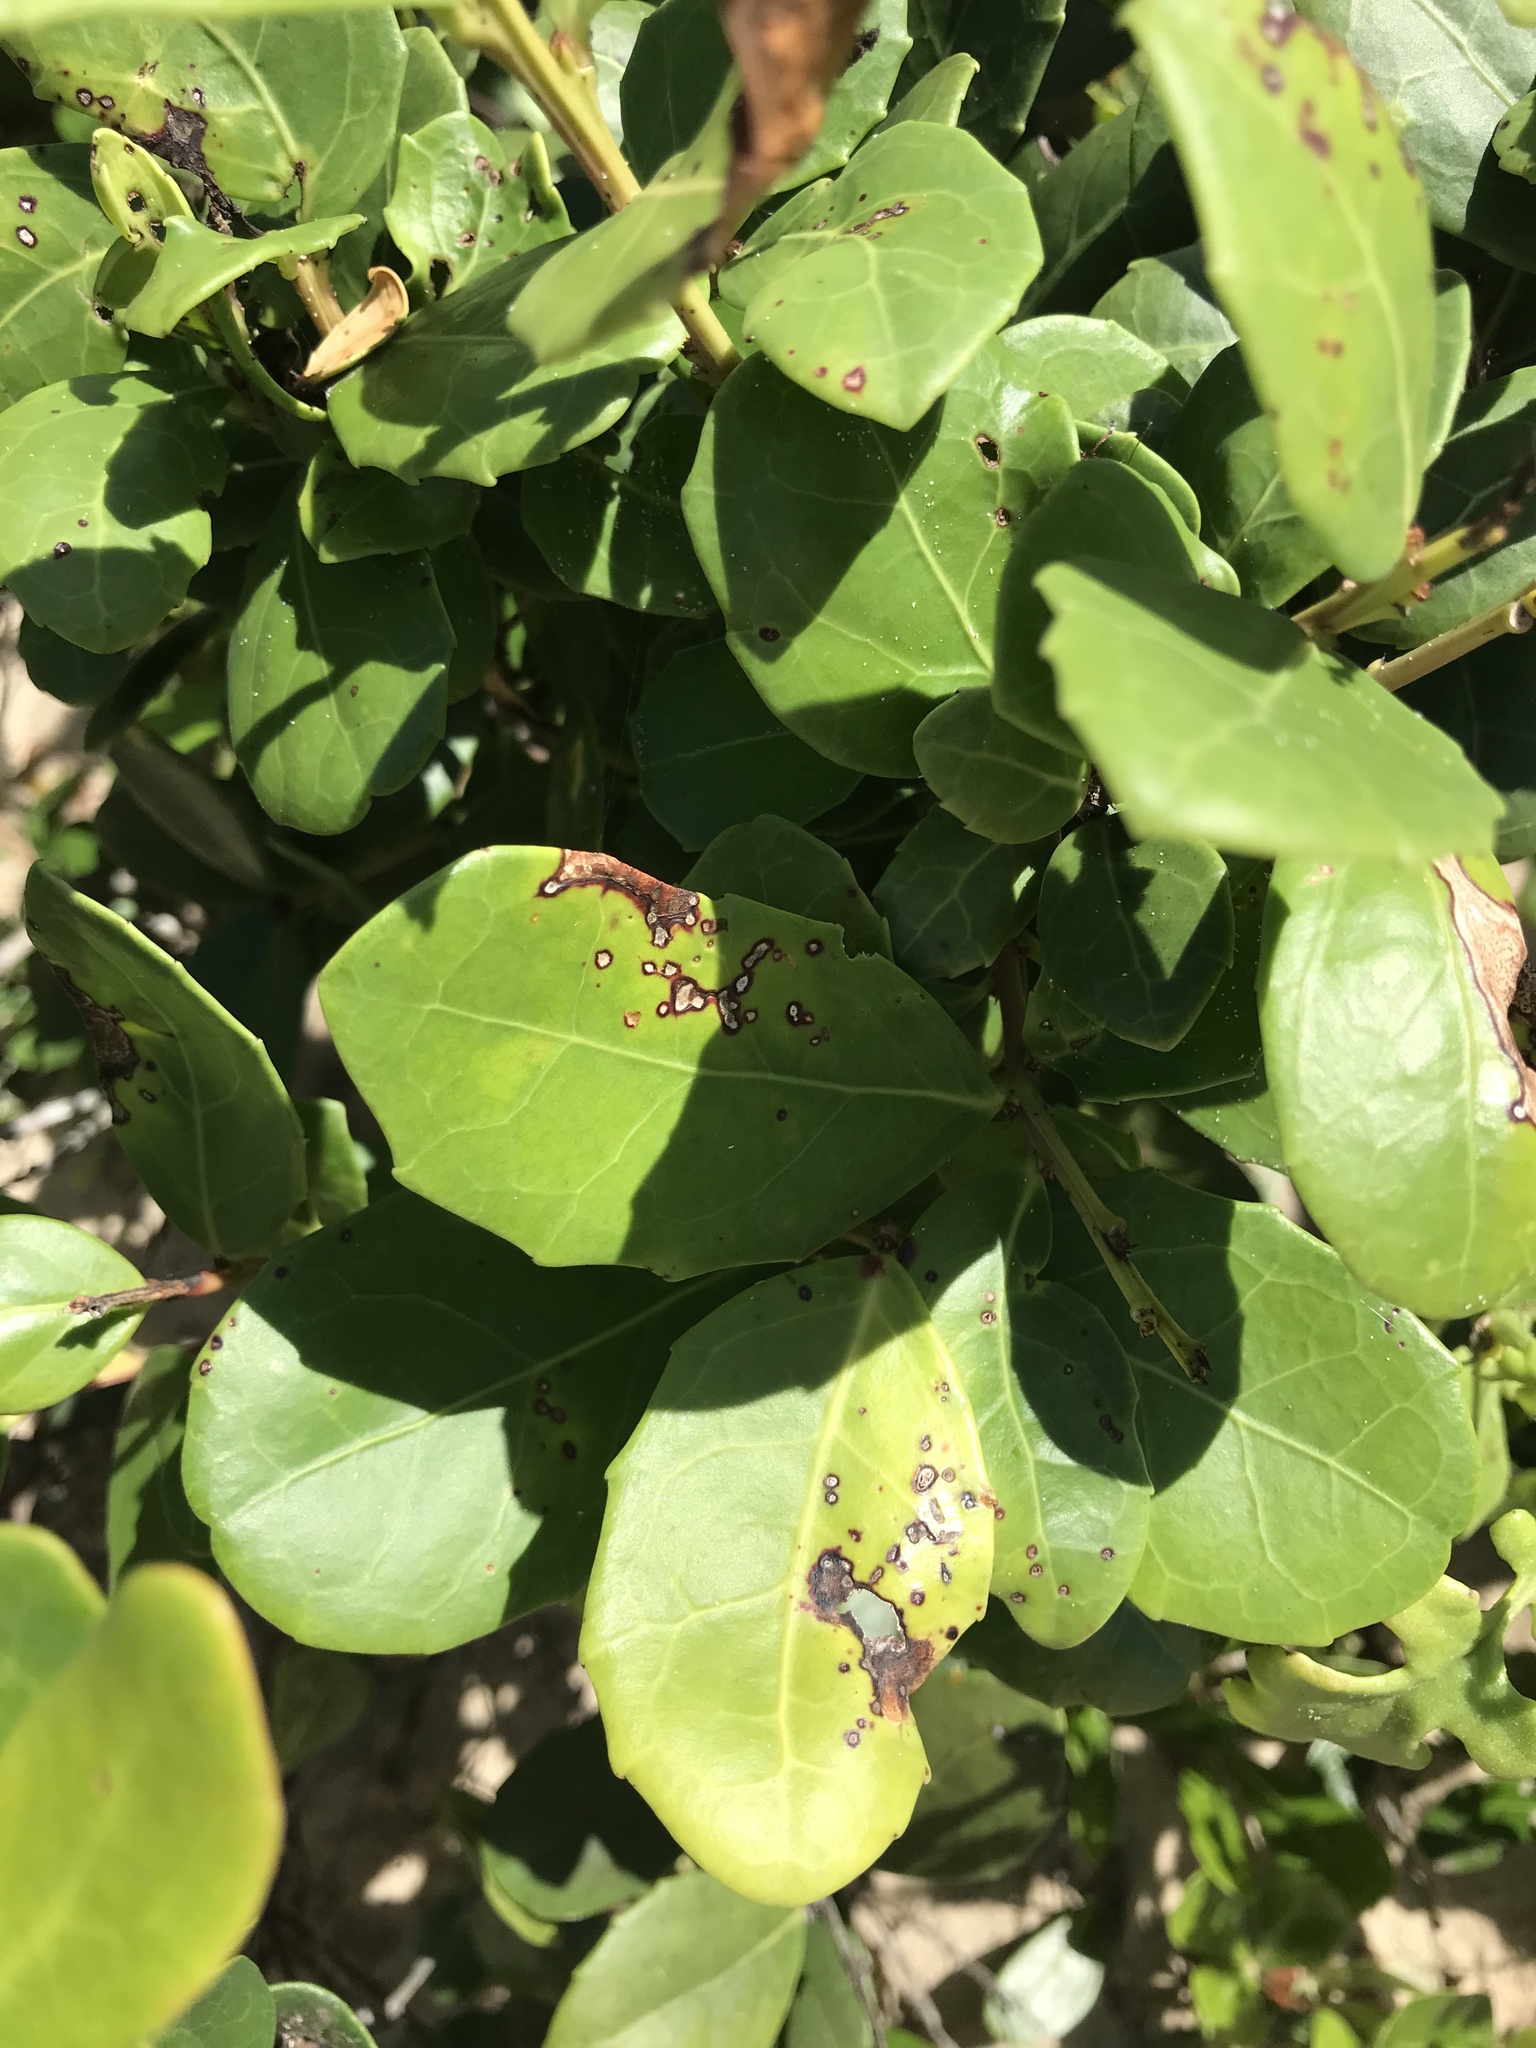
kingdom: Plantae
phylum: Tracheophyta
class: Magnoliopsida
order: Celastrales
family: Celastraceae
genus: Gymnosporia
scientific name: Gymnosporia procumbens
